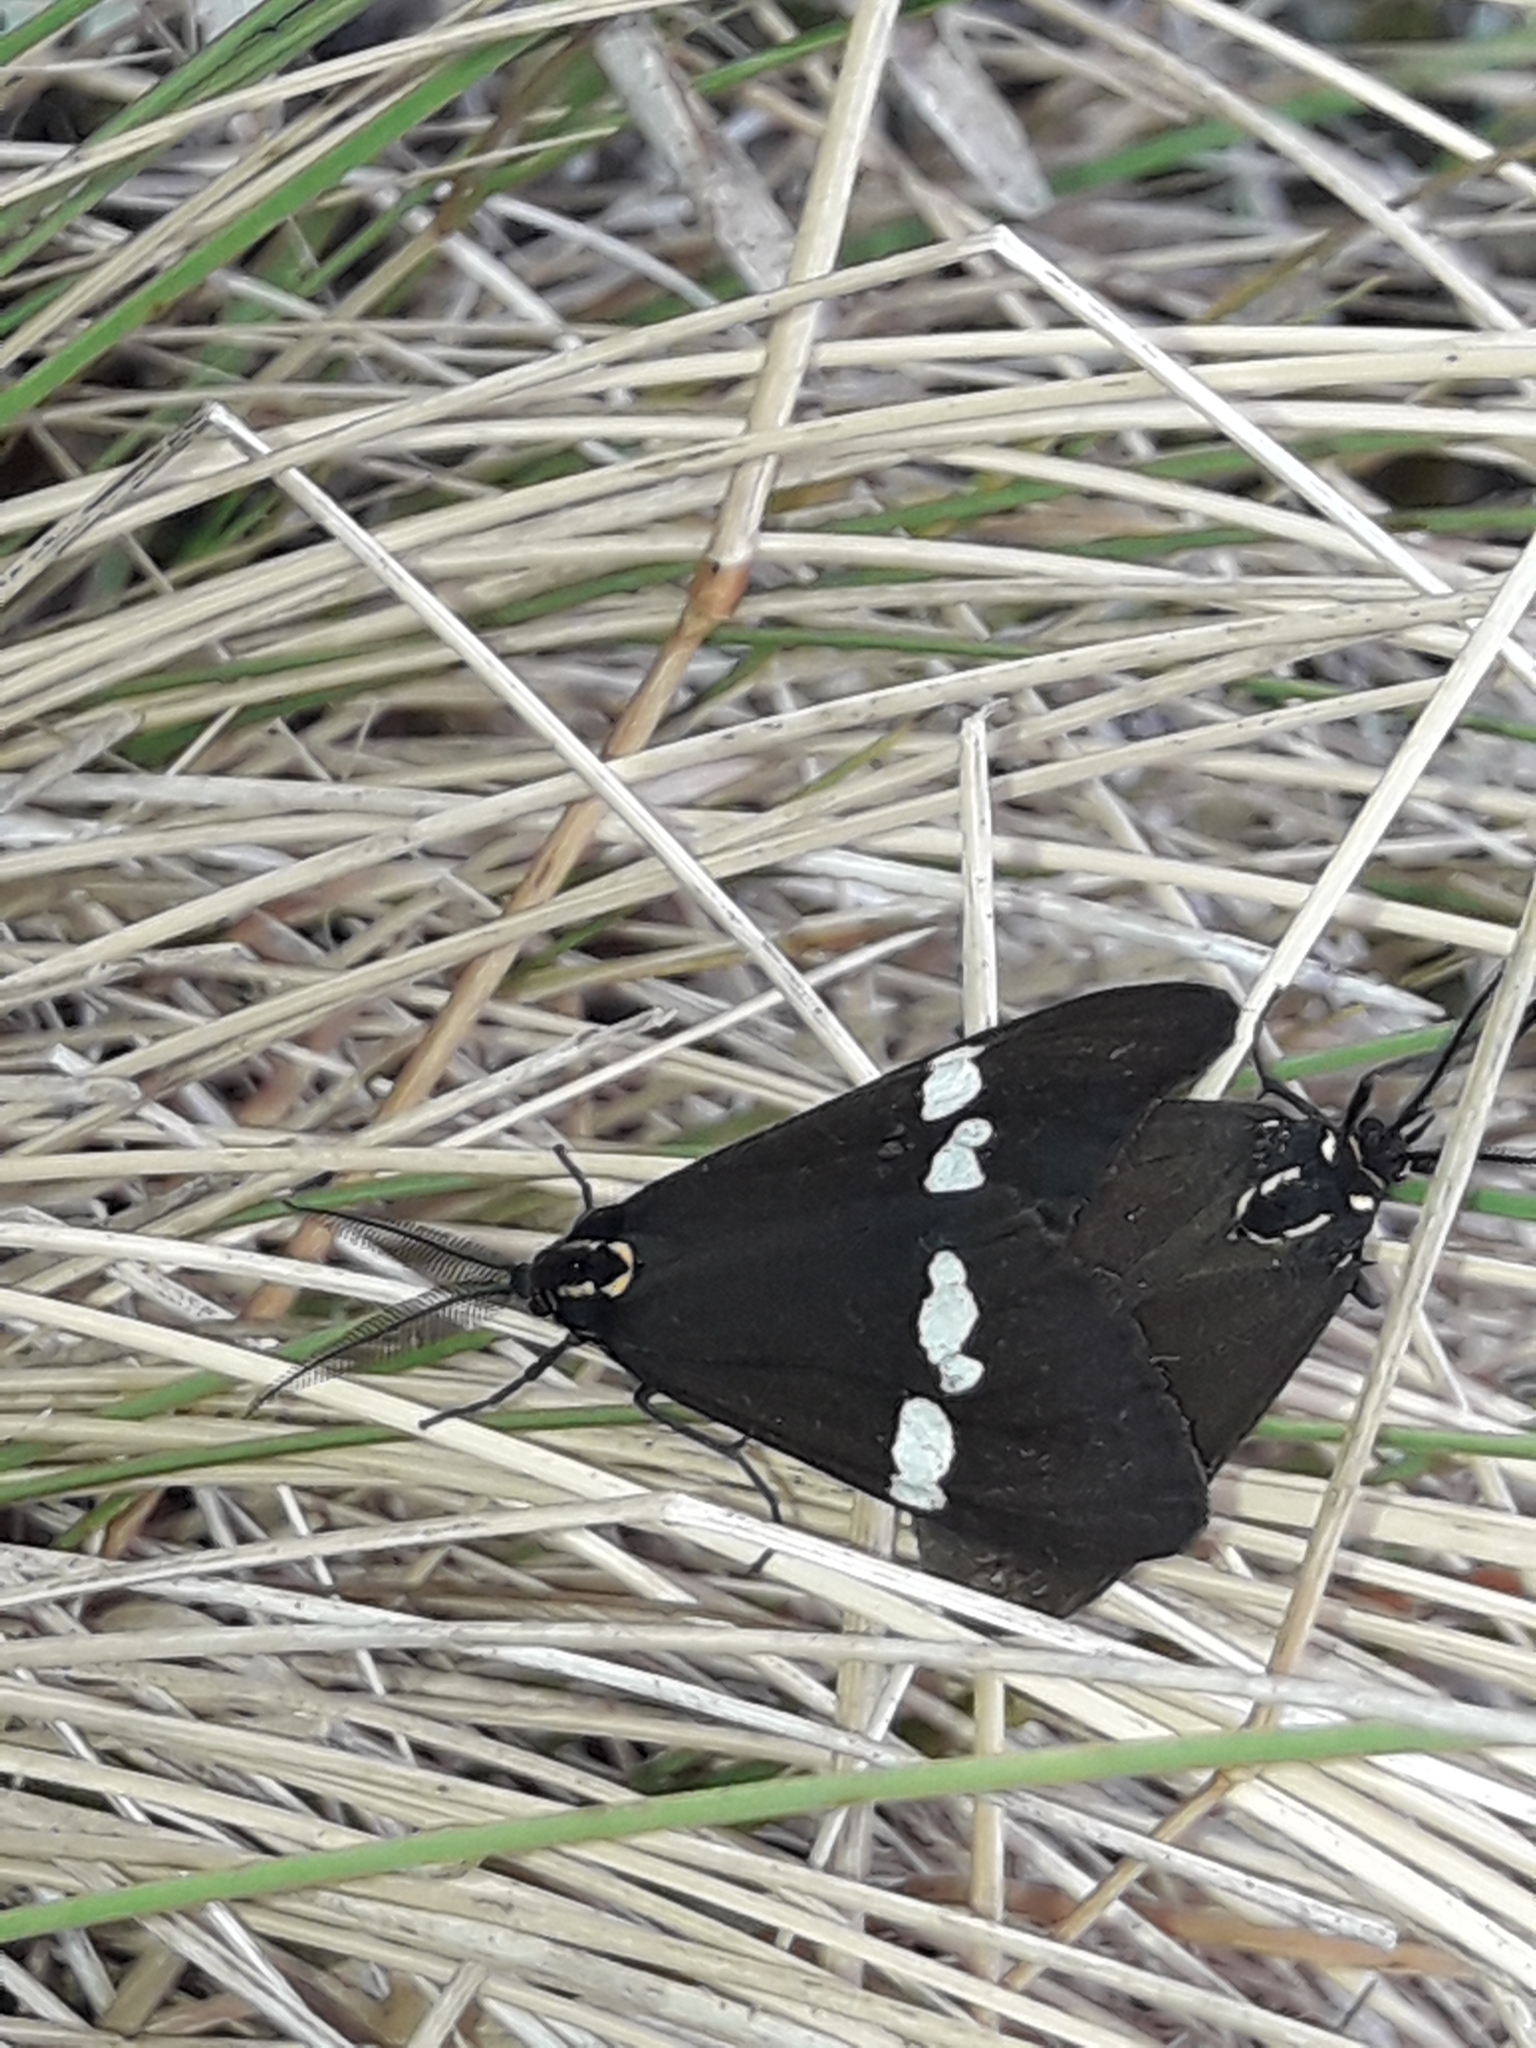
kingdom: Animalia
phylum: Arthropoda
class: Insecta
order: Lepidoptera
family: Erebidae
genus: Nyctemera
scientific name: Nyctemera annulatum
